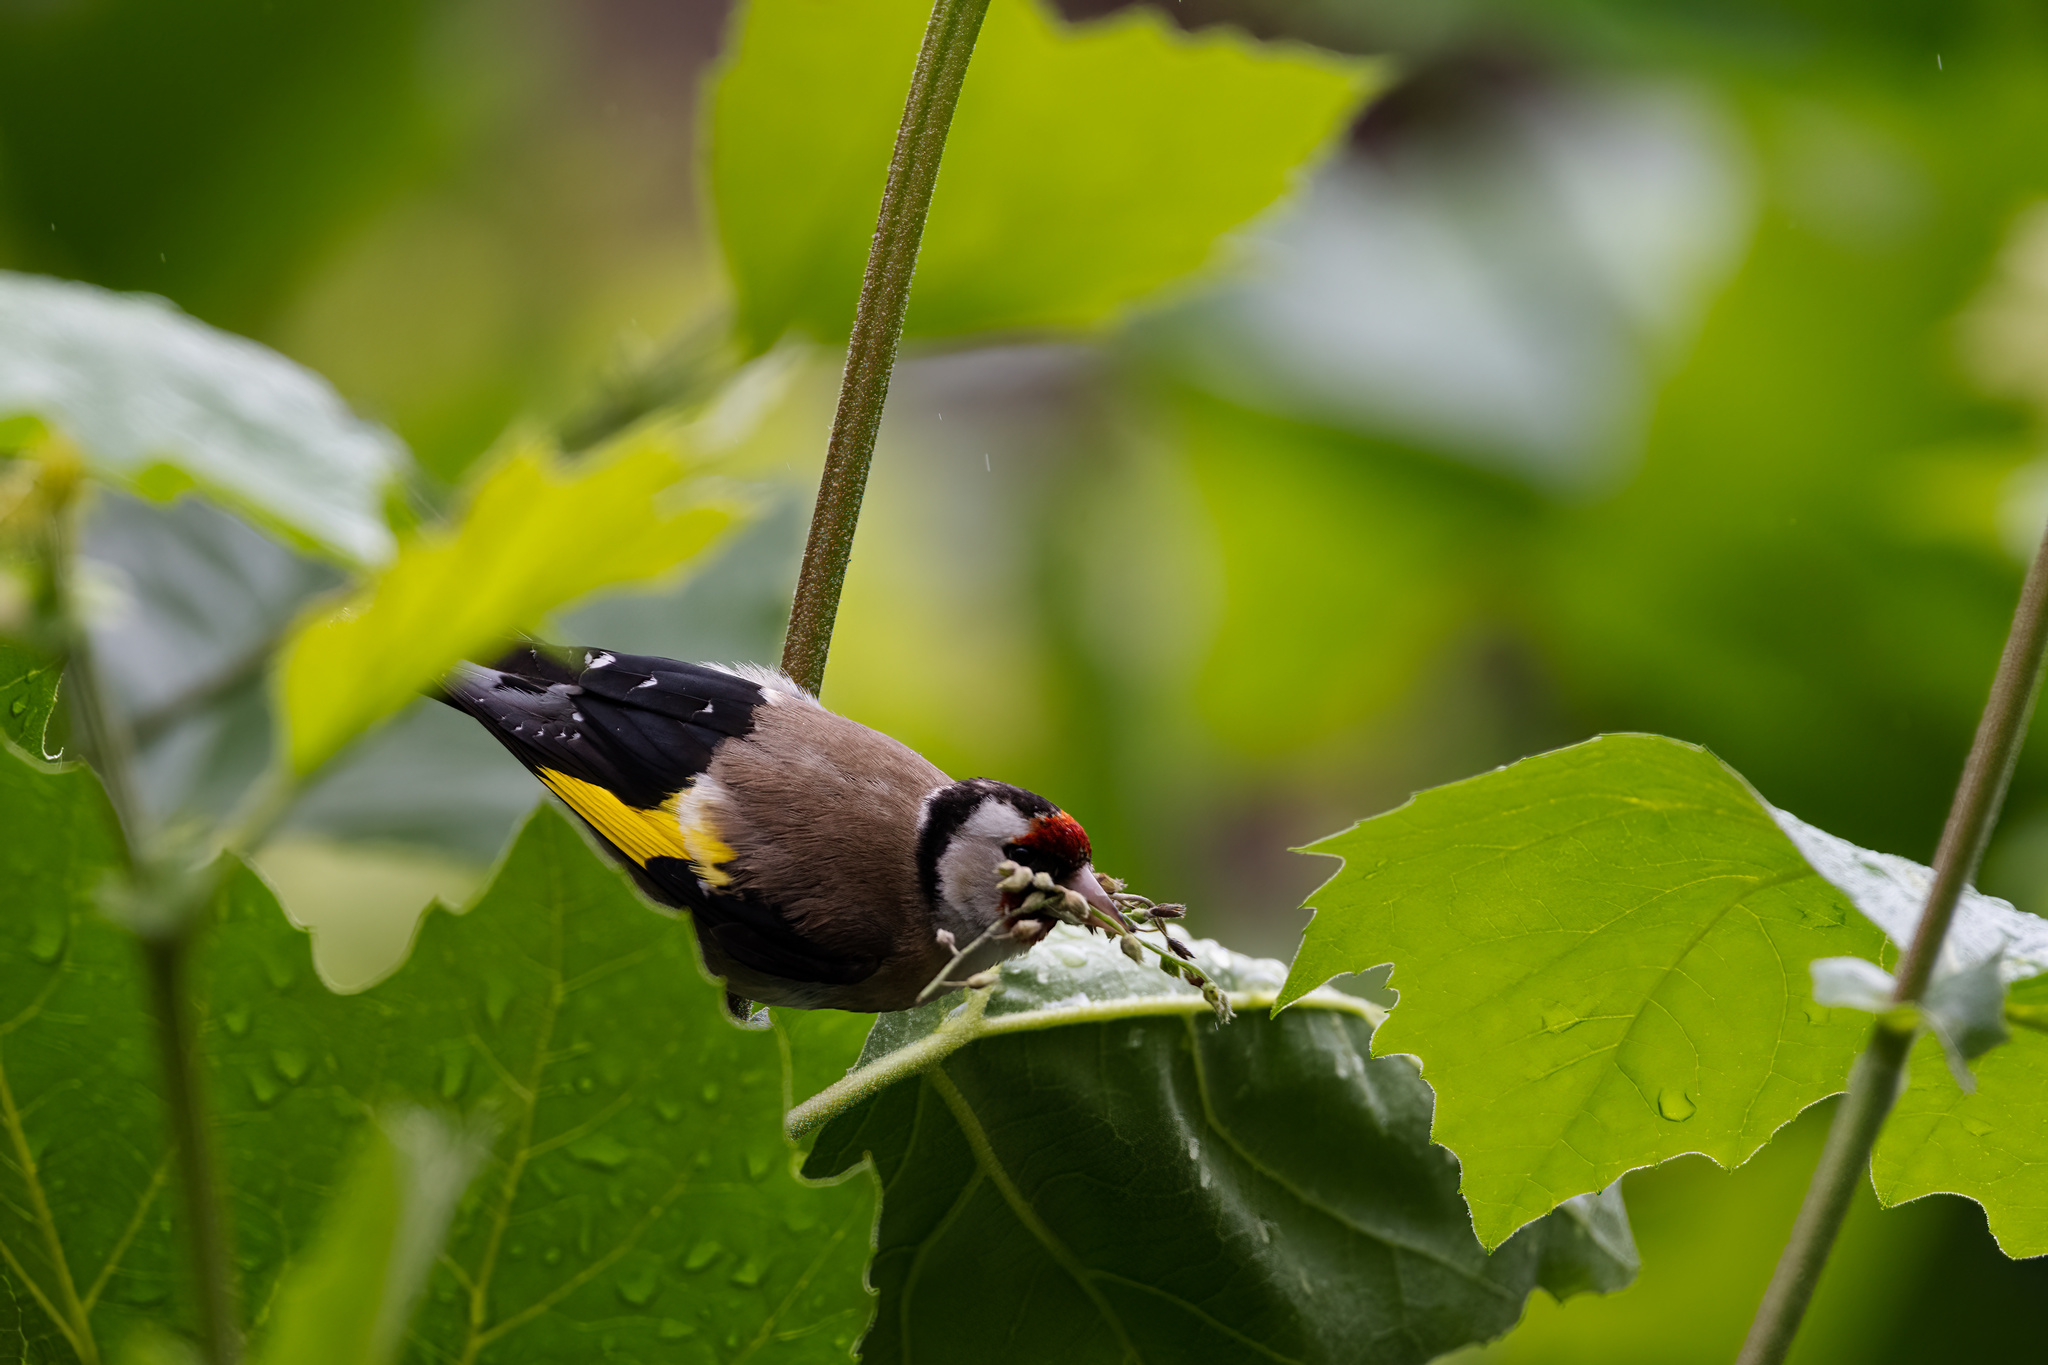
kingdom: Animalia
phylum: Chordata
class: Aves
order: Passeriformes
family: Fringillidae
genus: Carduelis
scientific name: Carduelis carduelis
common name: European goldfinch
